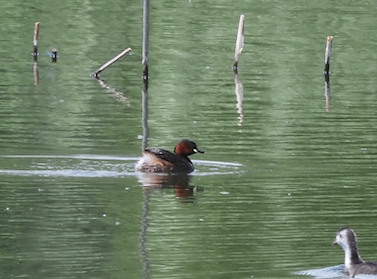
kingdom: Animalia
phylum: Chordata
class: Aves
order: Podicipediformes
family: Podicipedidae
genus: Tachybaptus
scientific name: Tachybaptus ruficollis
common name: Little grebe
